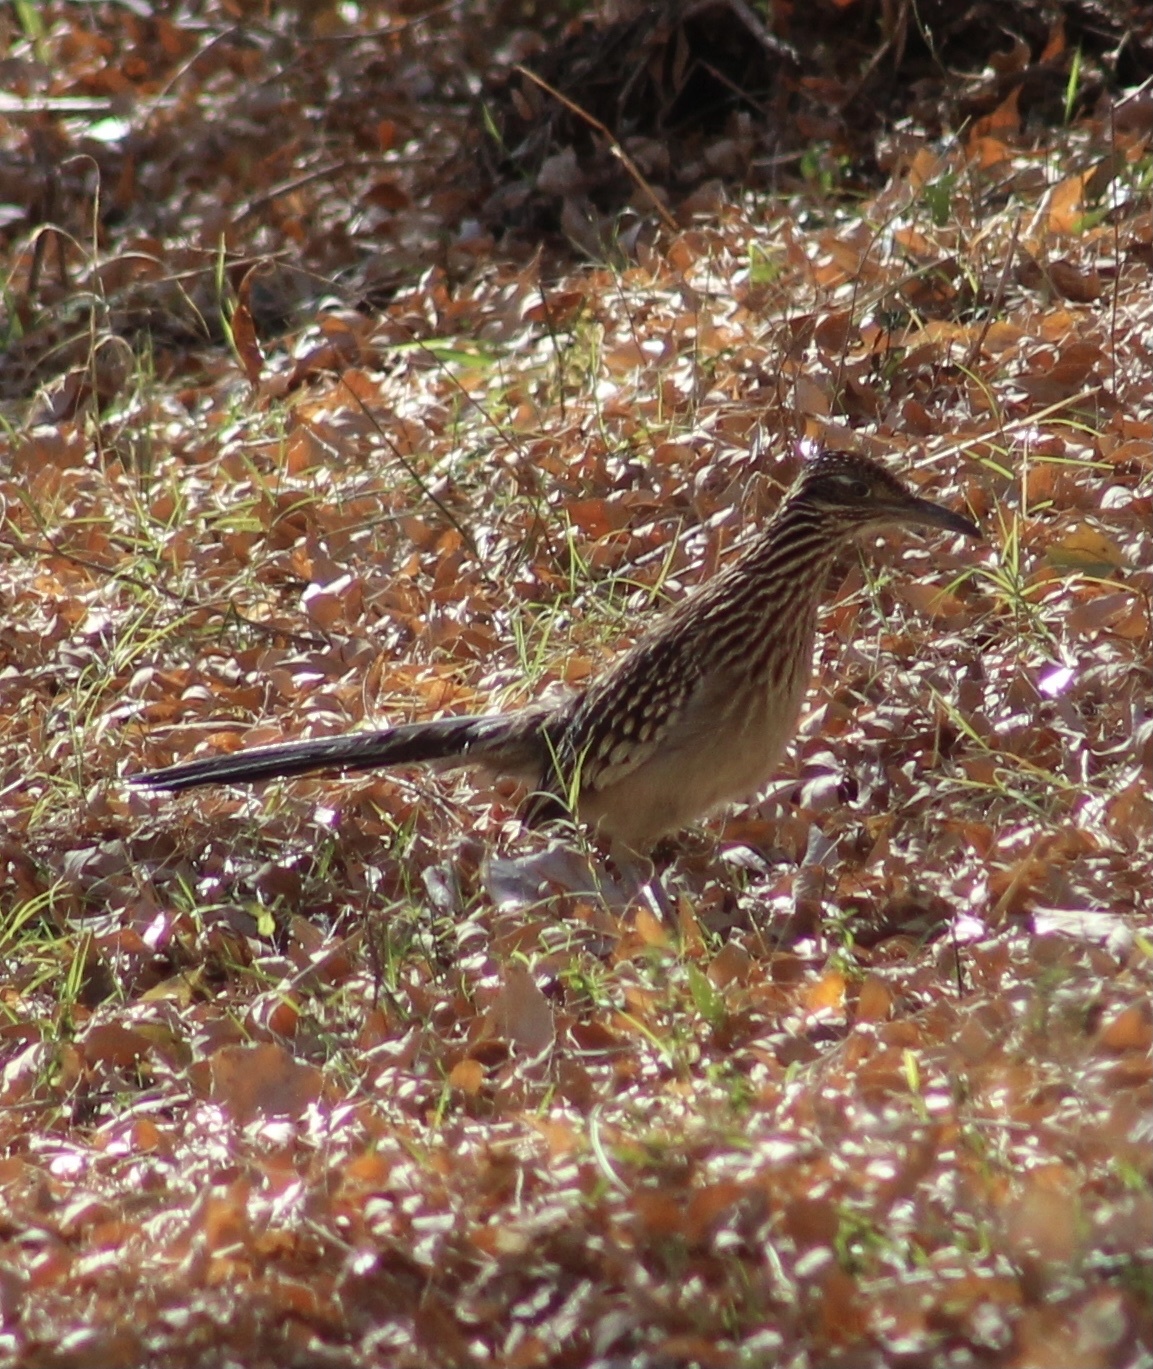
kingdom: Animalia
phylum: Chordata
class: Aves
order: Cuculiformes
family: Cuculidae
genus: Geococcyx
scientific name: Geococcyx californianus
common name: Greater roadrunner
